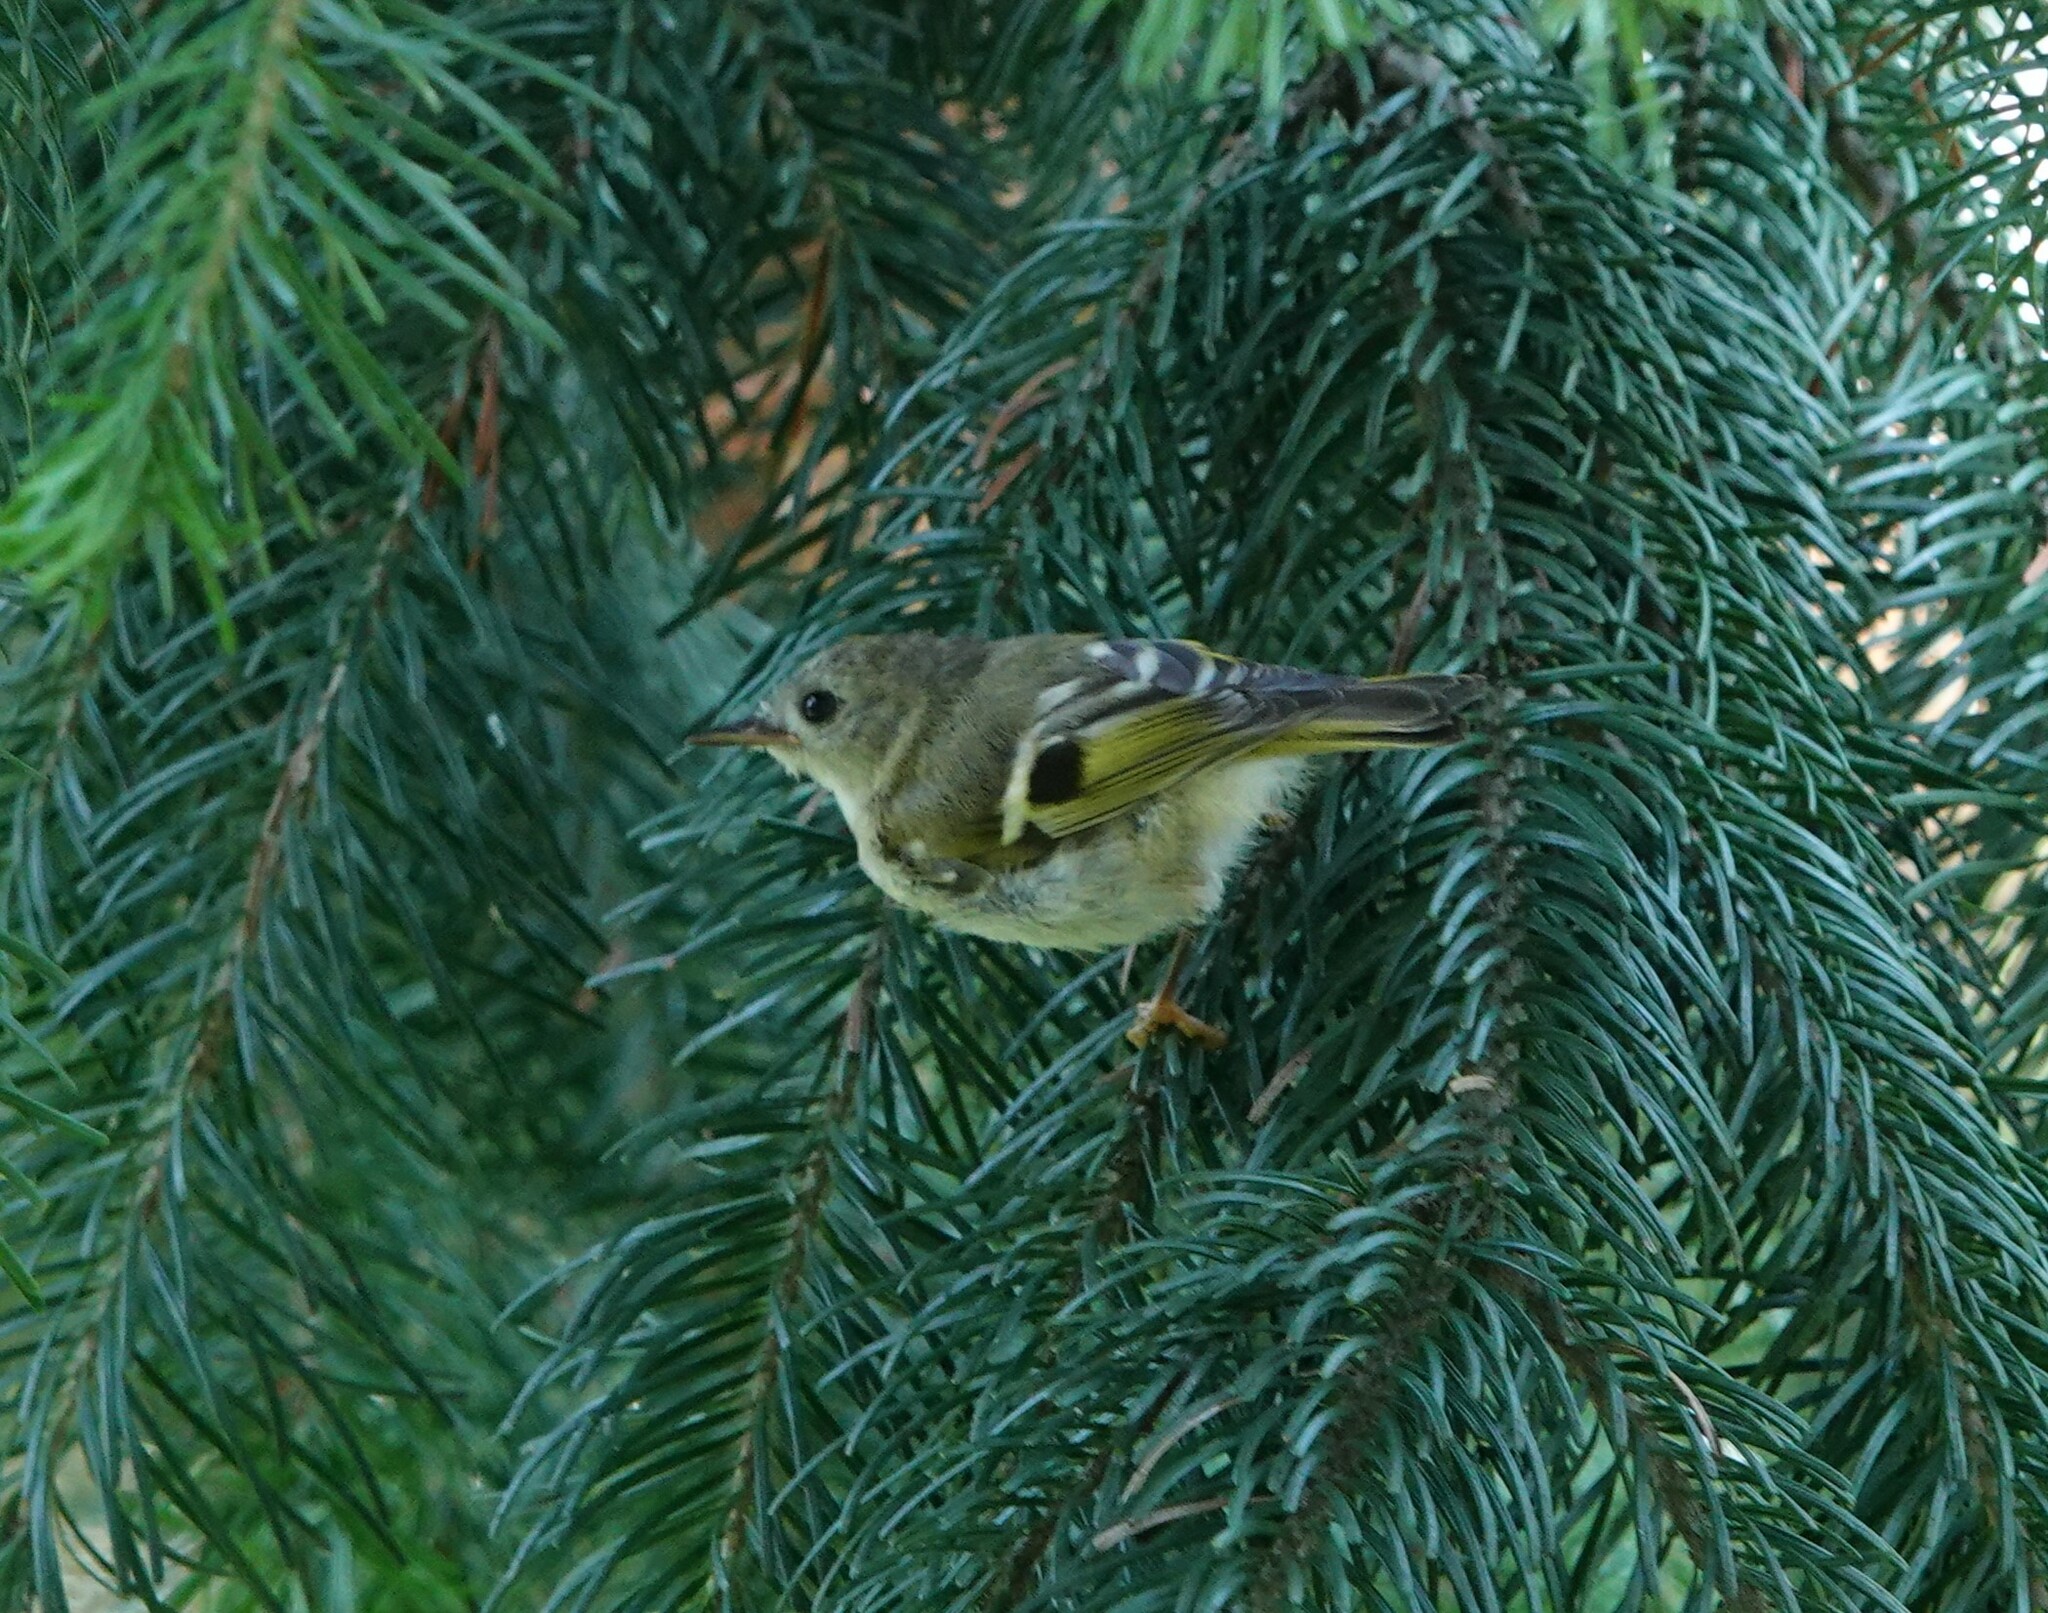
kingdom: Animalia
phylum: Chordata
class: Aves
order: Passeriformes
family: Regulidae
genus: Regulus
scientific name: Regulus regulus
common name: Goldcrest
